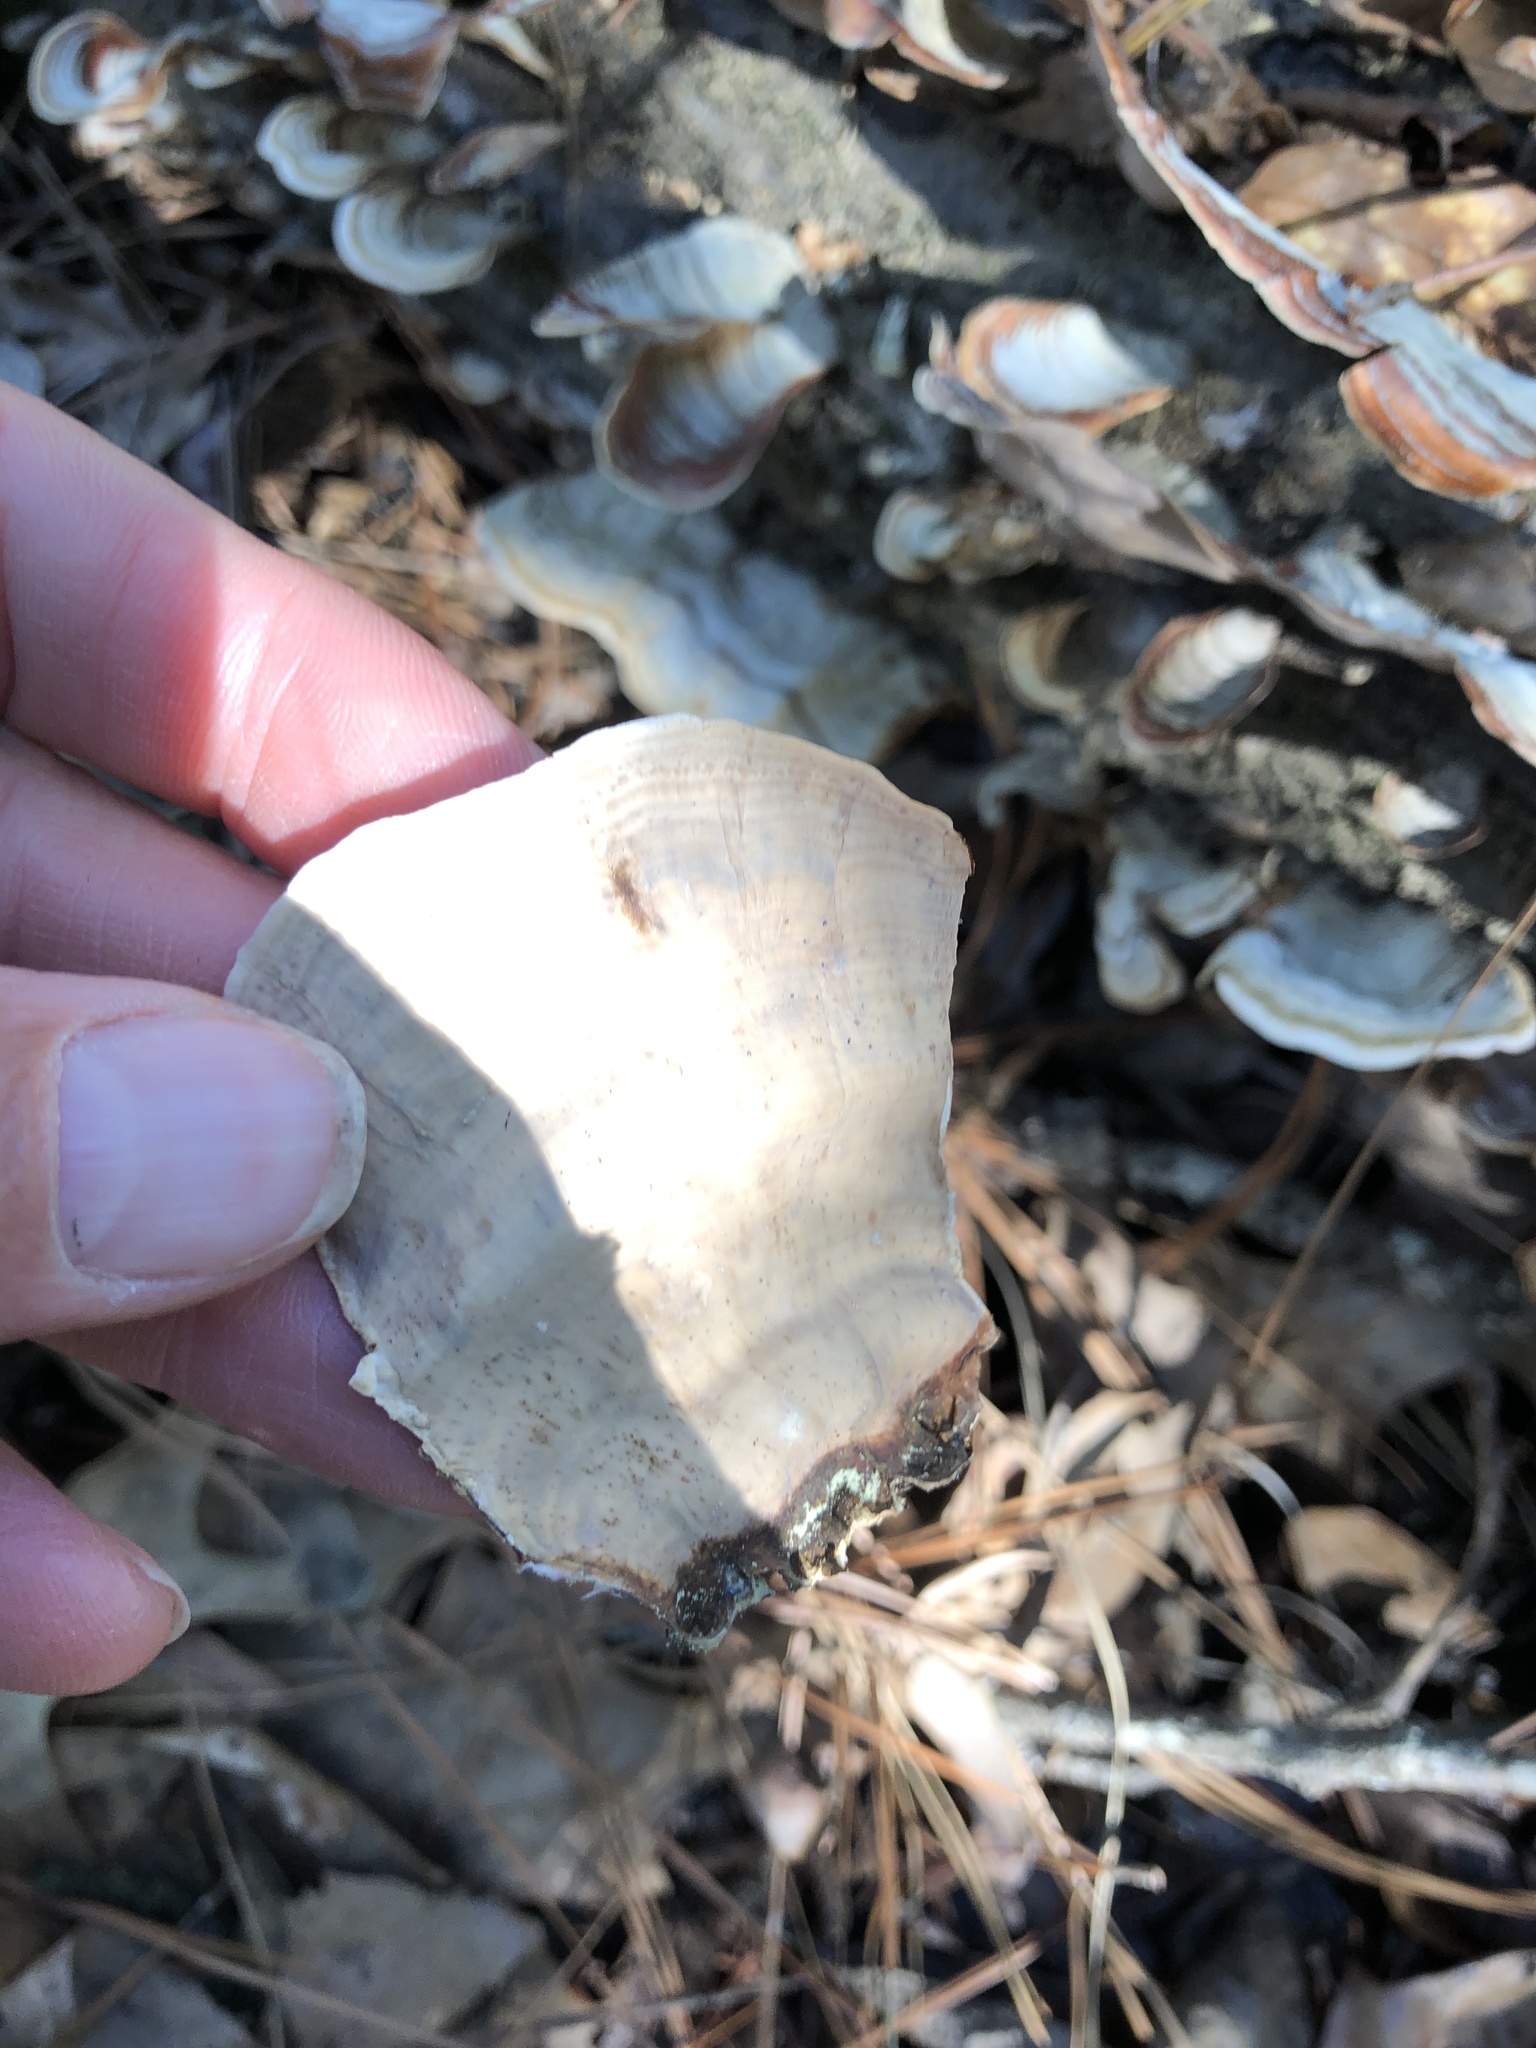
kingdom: Fungi
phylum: Basidiomycota
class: Agaricomycetes
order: Russulales
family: Stereaceae
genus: Stereum
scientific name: Stereum lobatum
